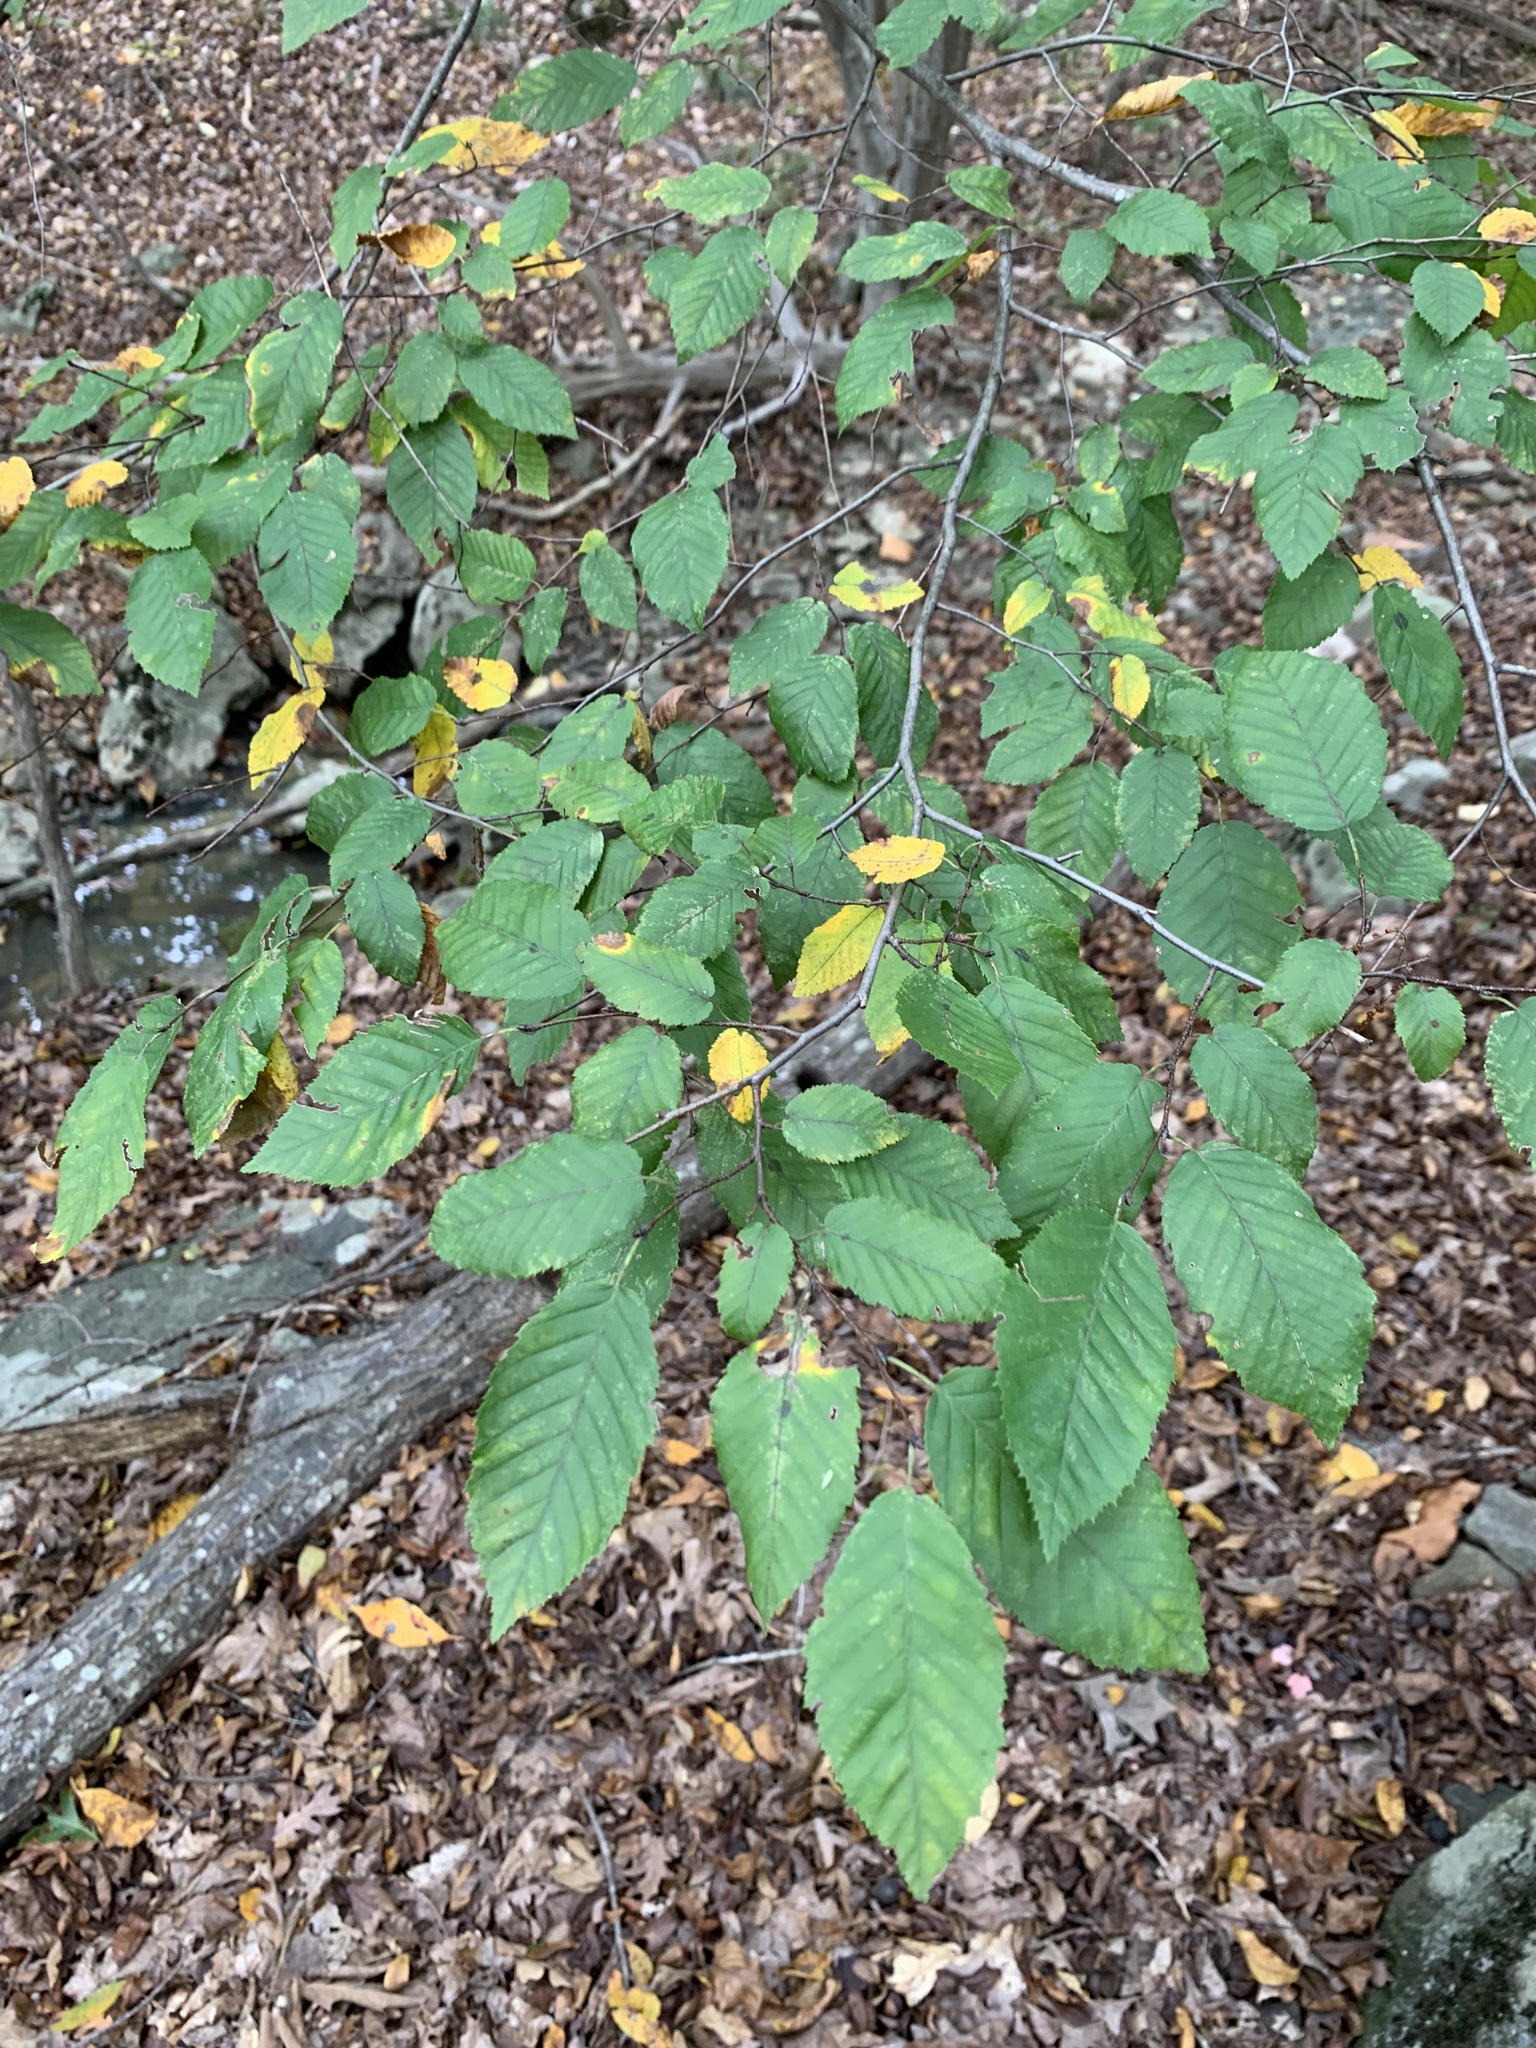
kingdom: Plantae
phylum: Tracheophyta
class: Magnoliopsida
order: Fagales
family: Betulaceae
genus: Carpinus
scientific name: Carpinus caroliniana
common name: American hornbeam
